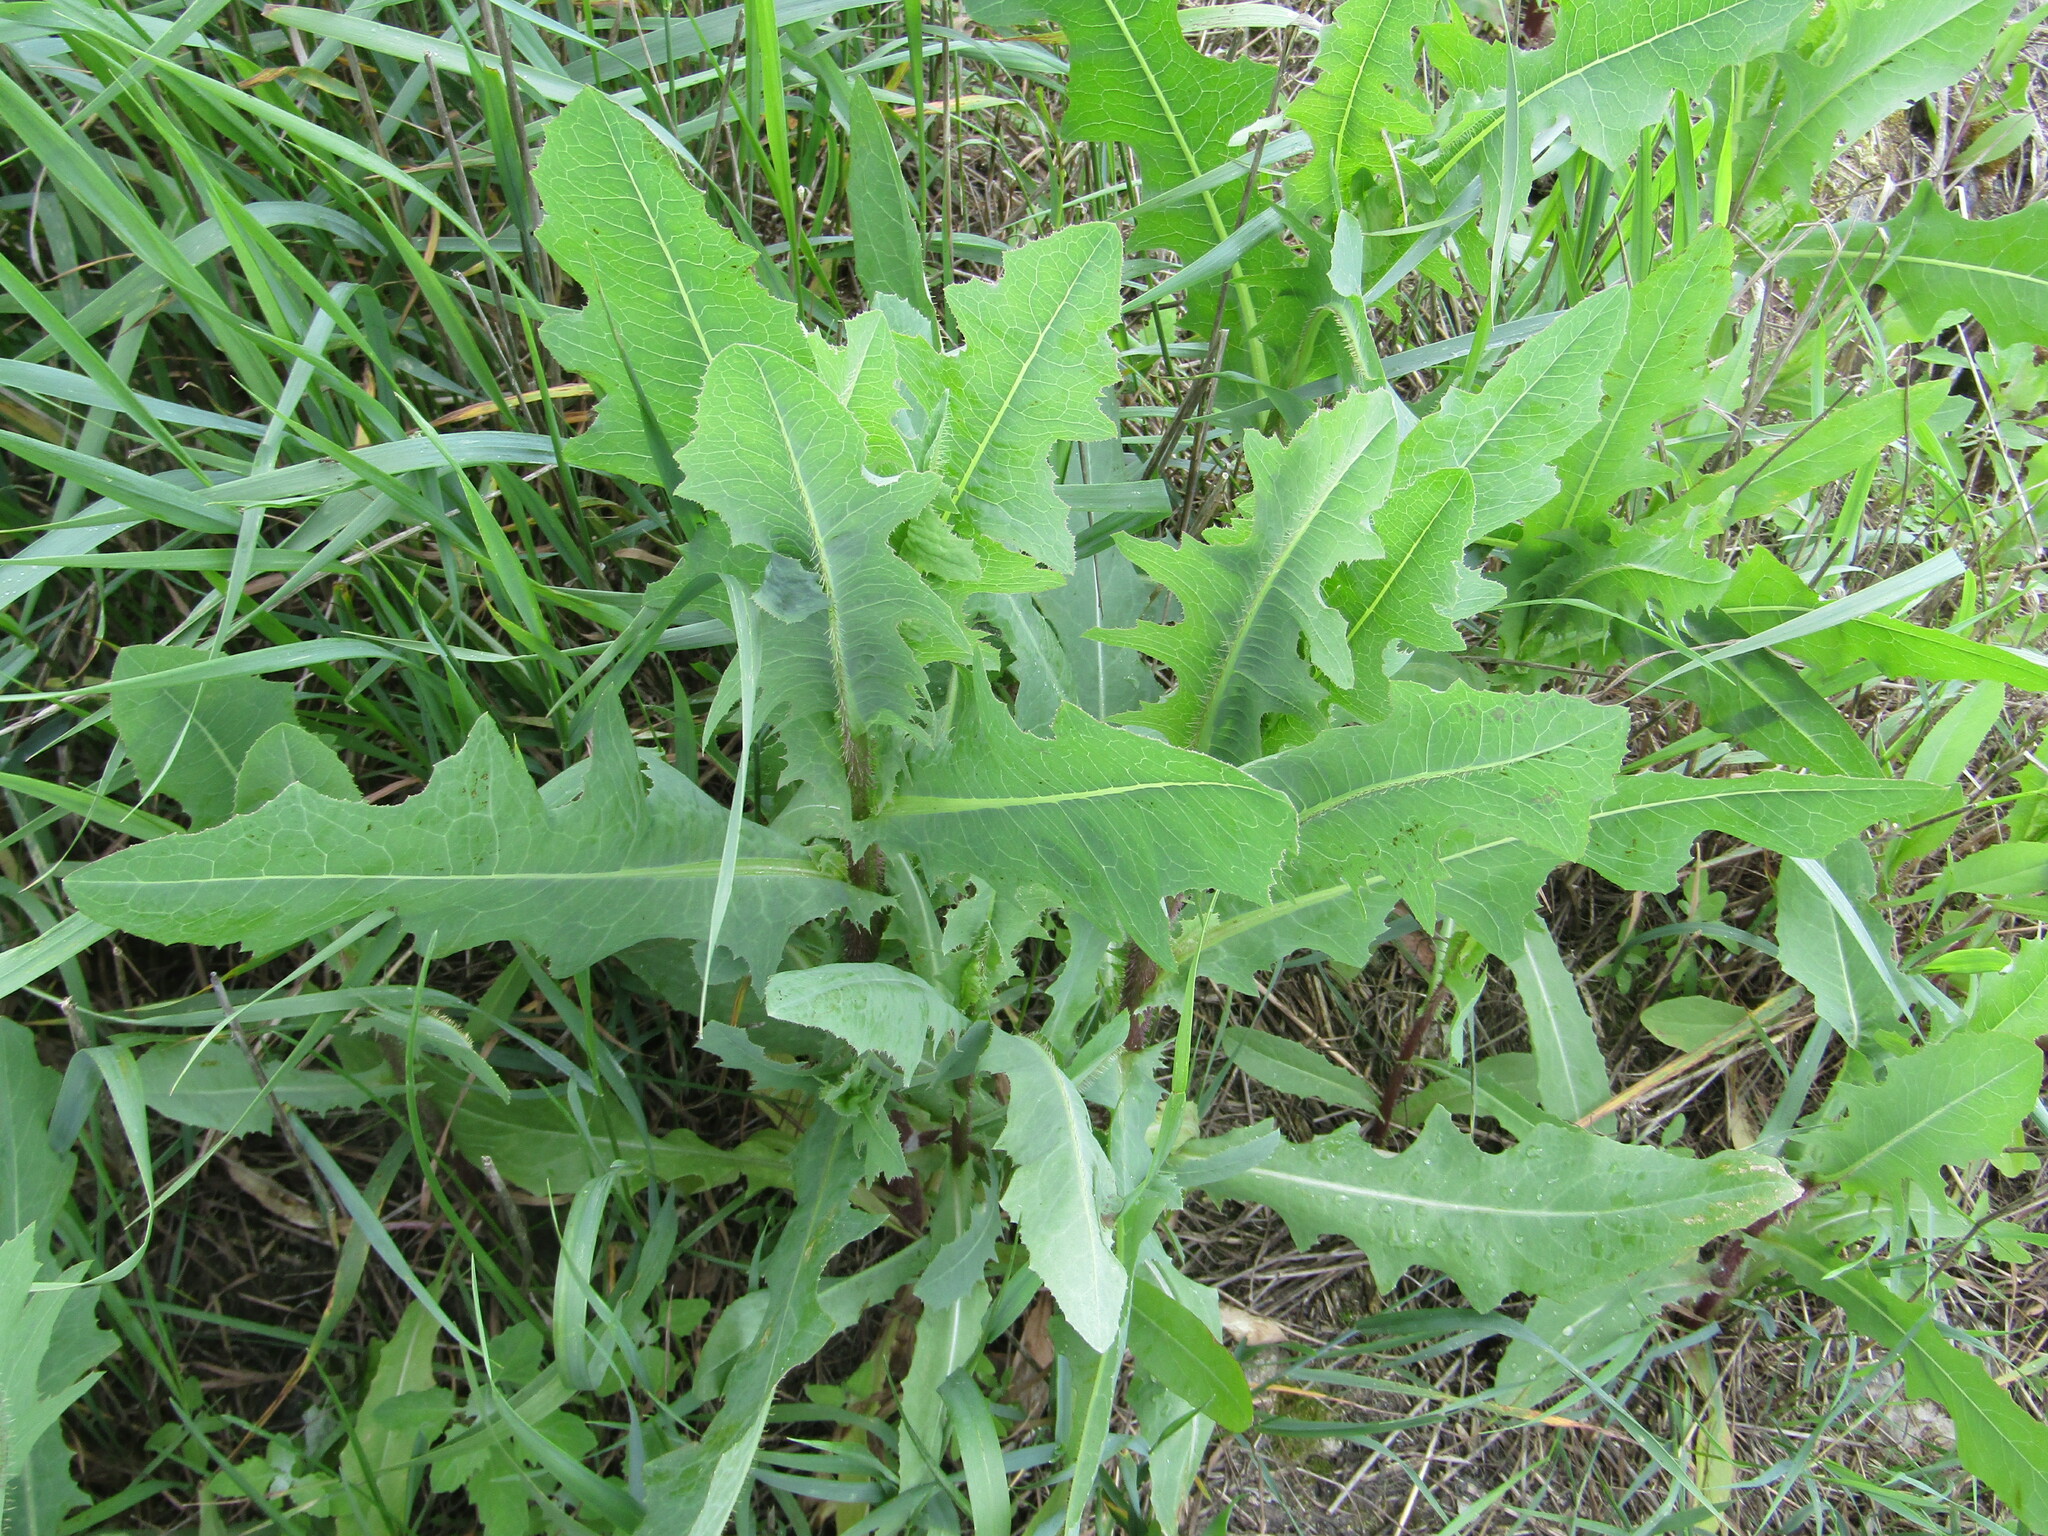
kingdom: Plantae
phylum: Tracheophyta
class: Magnoliopsida
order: Asterales
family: Asteraceae
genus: Lactuca
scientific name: Lactuca serriola
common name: Prickly lettuce
